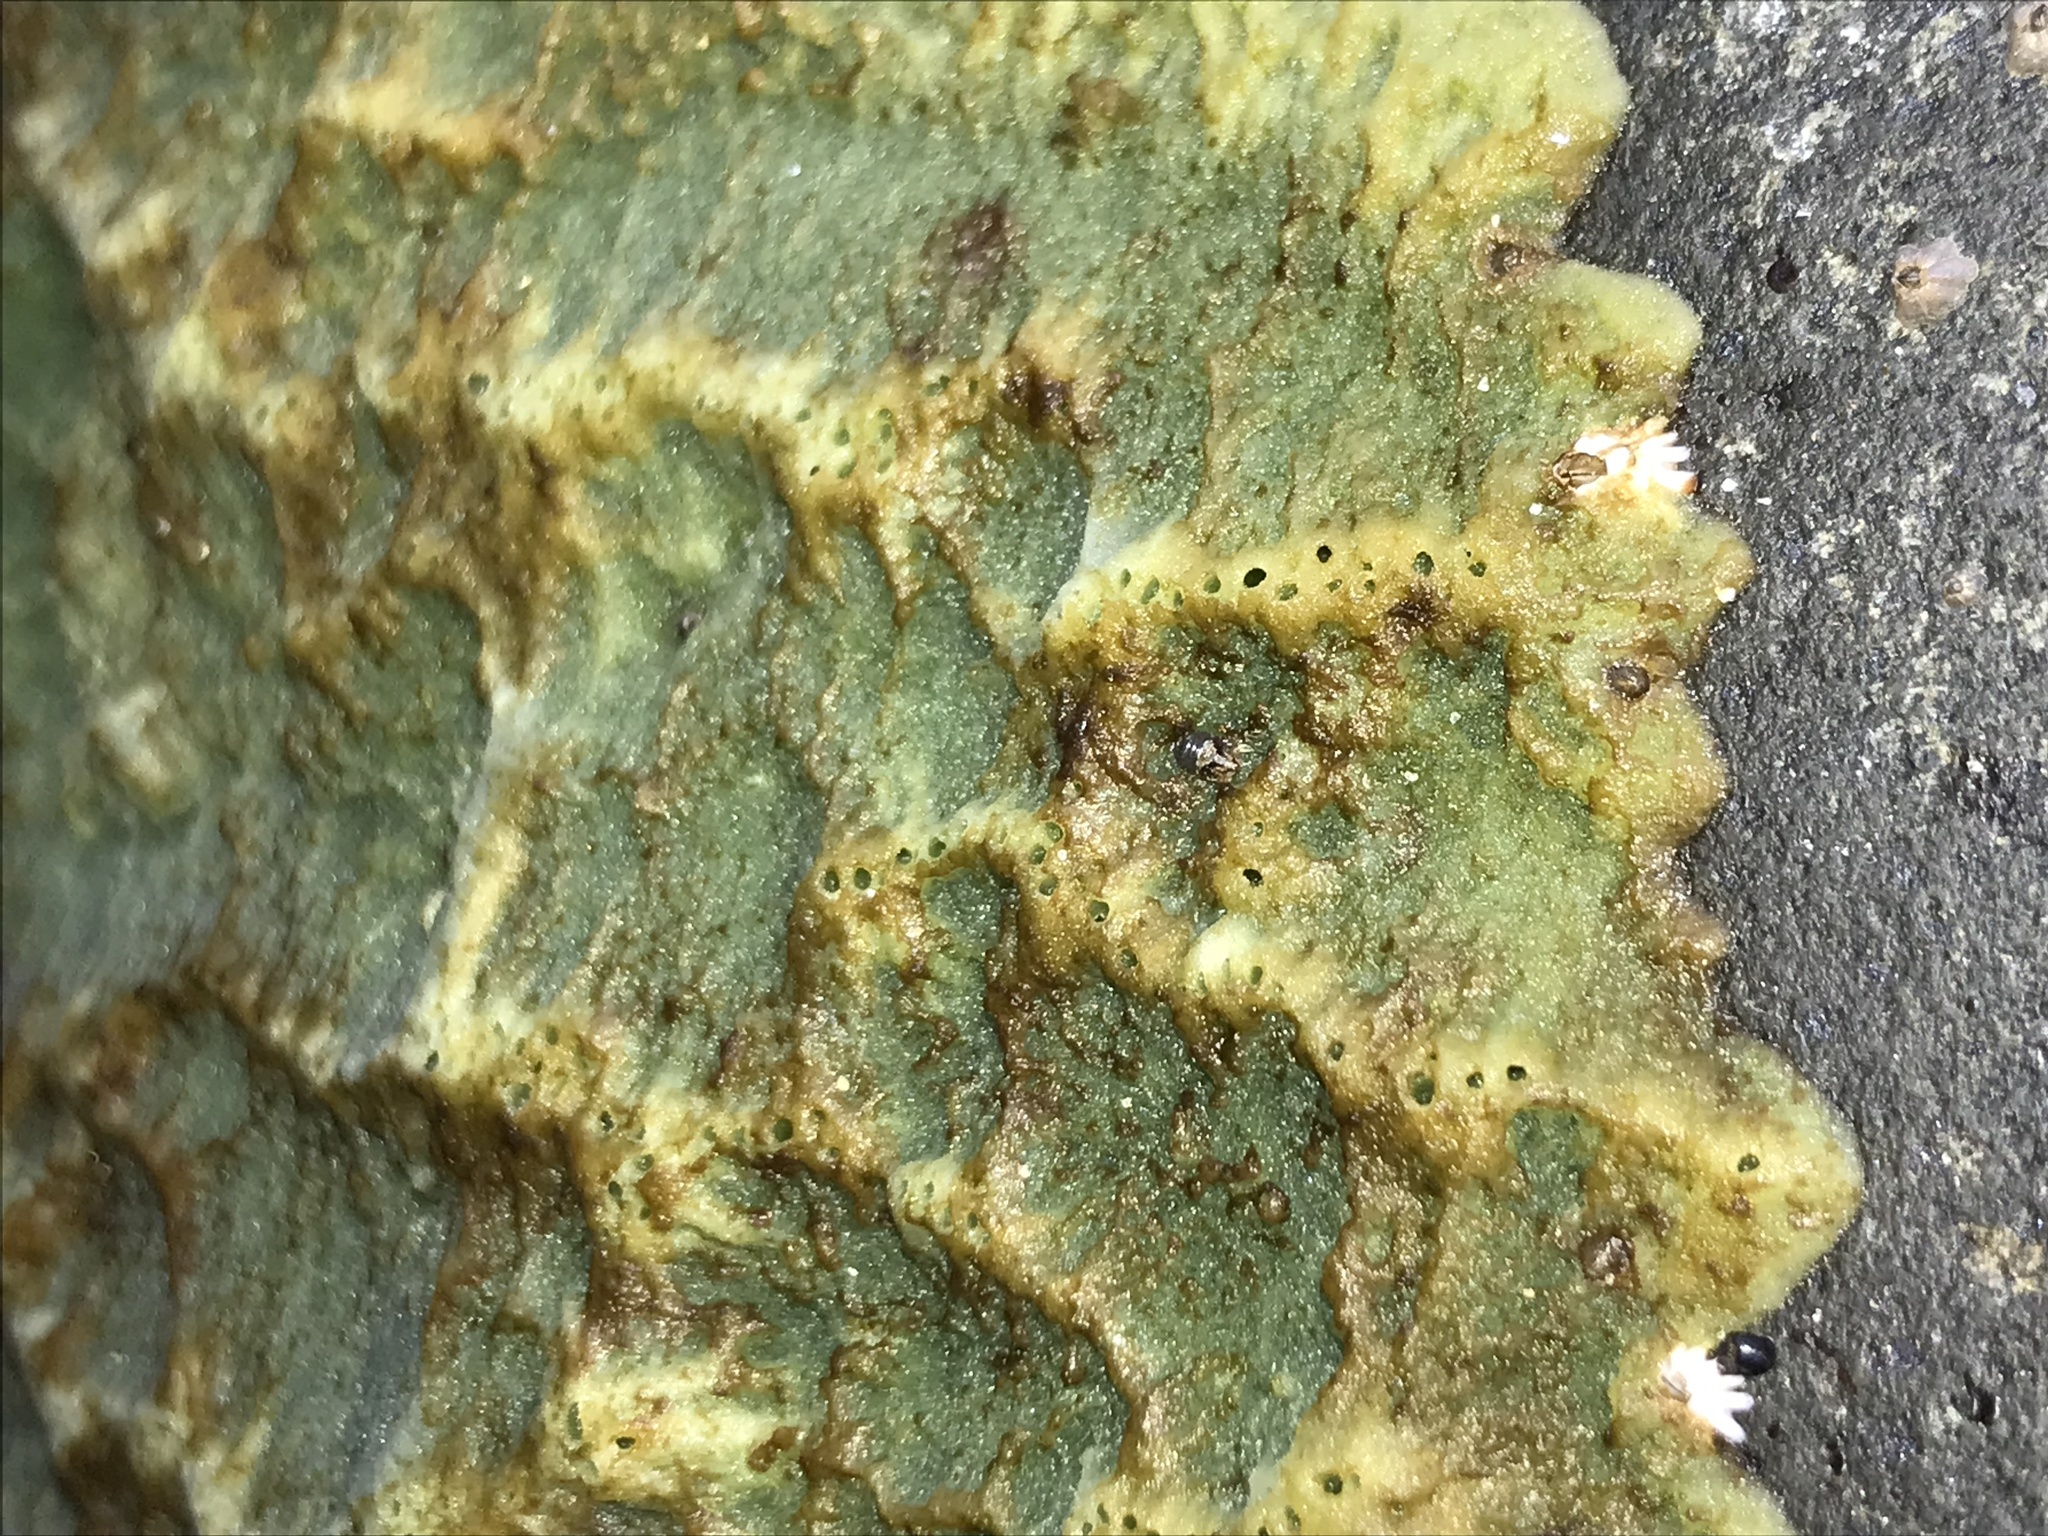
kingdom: Animalia
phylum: Porifera
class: Demospongiae
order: Suberitida
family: Halichondriidae
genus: Halichondria
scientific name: Halichondria panicea
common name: Breadcrumb sponge
